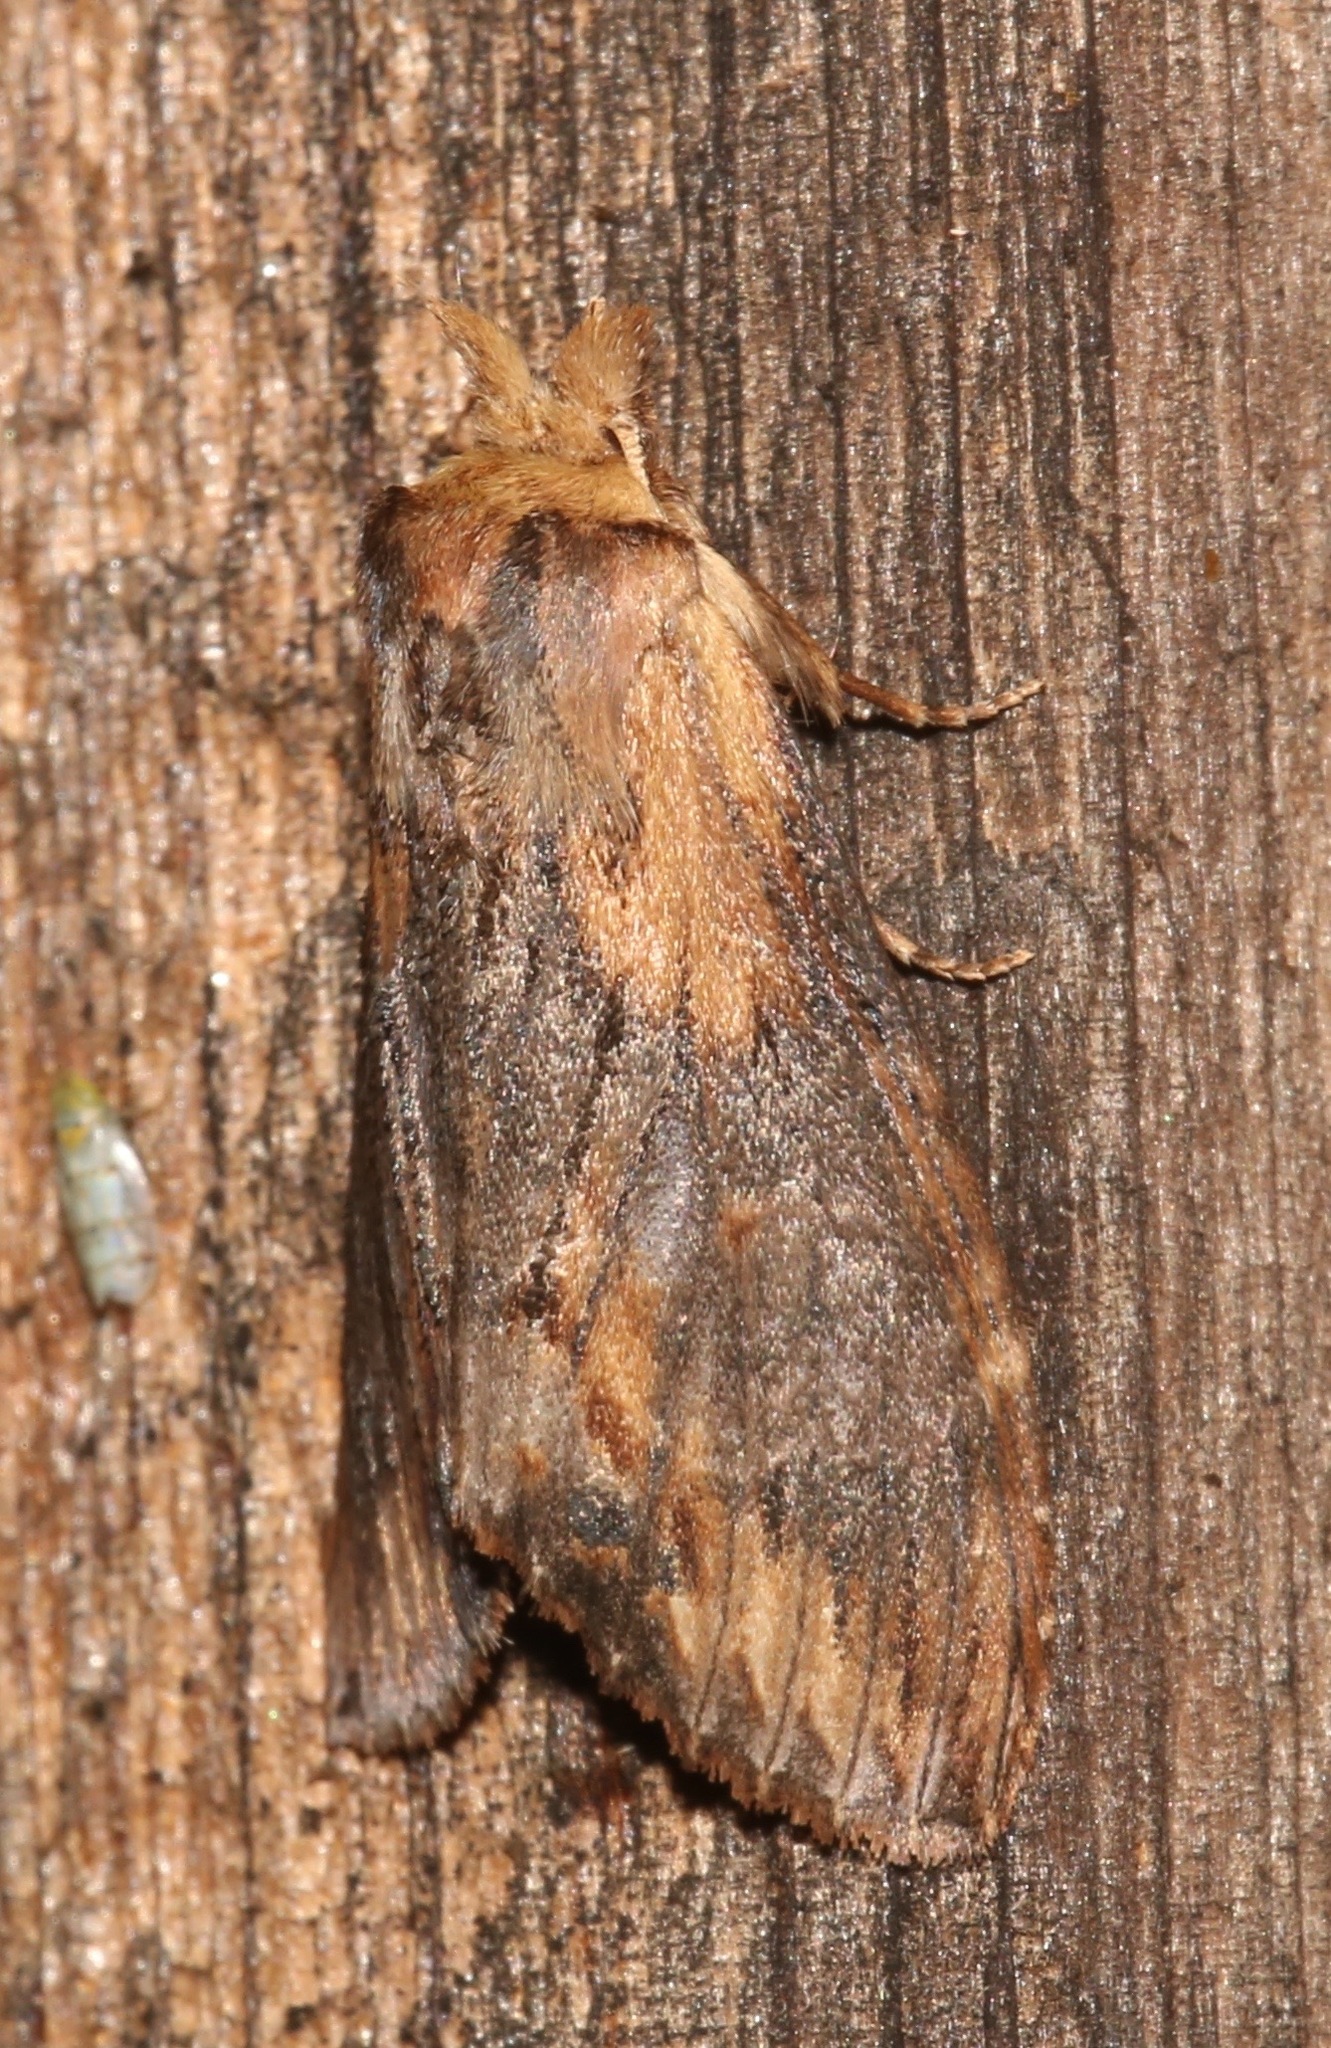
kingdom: Animalia
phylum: Arthropoda
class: Insecta
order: Lepidoptera
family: Notodontidae
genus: Dasylophia
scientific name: Dasylophia thyatiroides
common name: Gray-patched prominent
